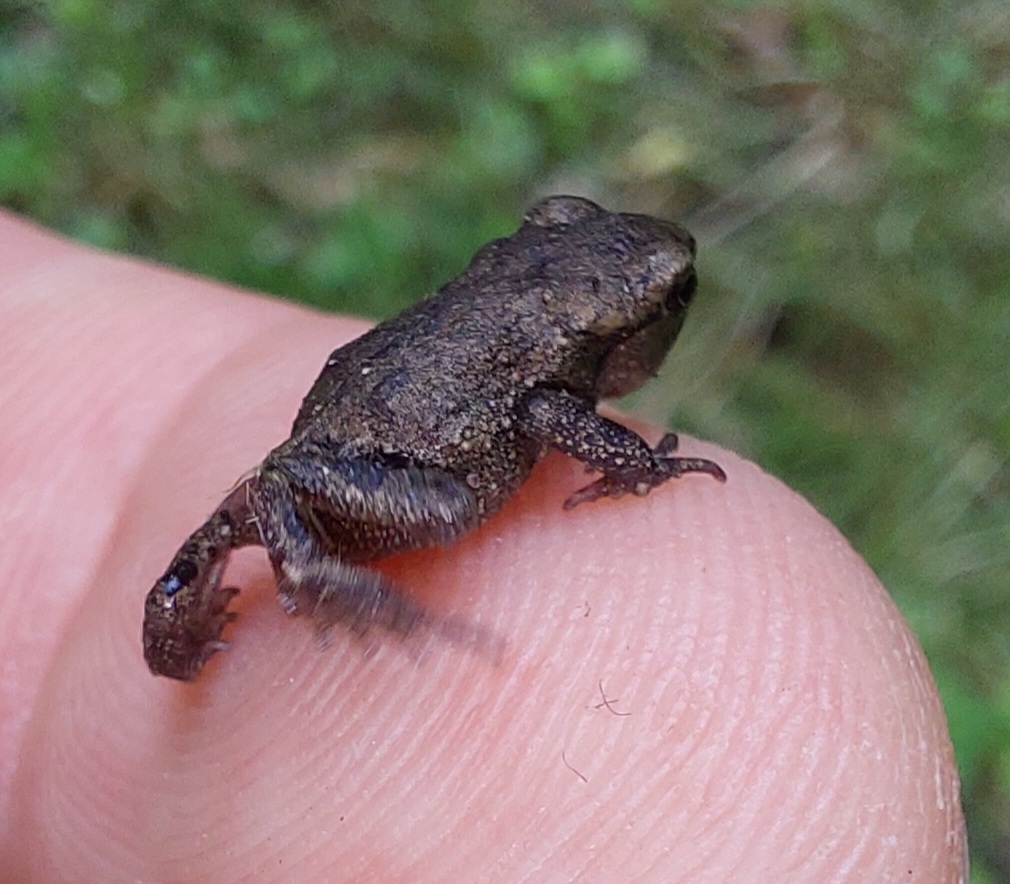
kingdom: Animalia
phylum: Chordata
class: Amphibia
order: Anura
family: Bufonidae
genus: Bufo
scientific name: Bufo bufo
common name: Common toad
